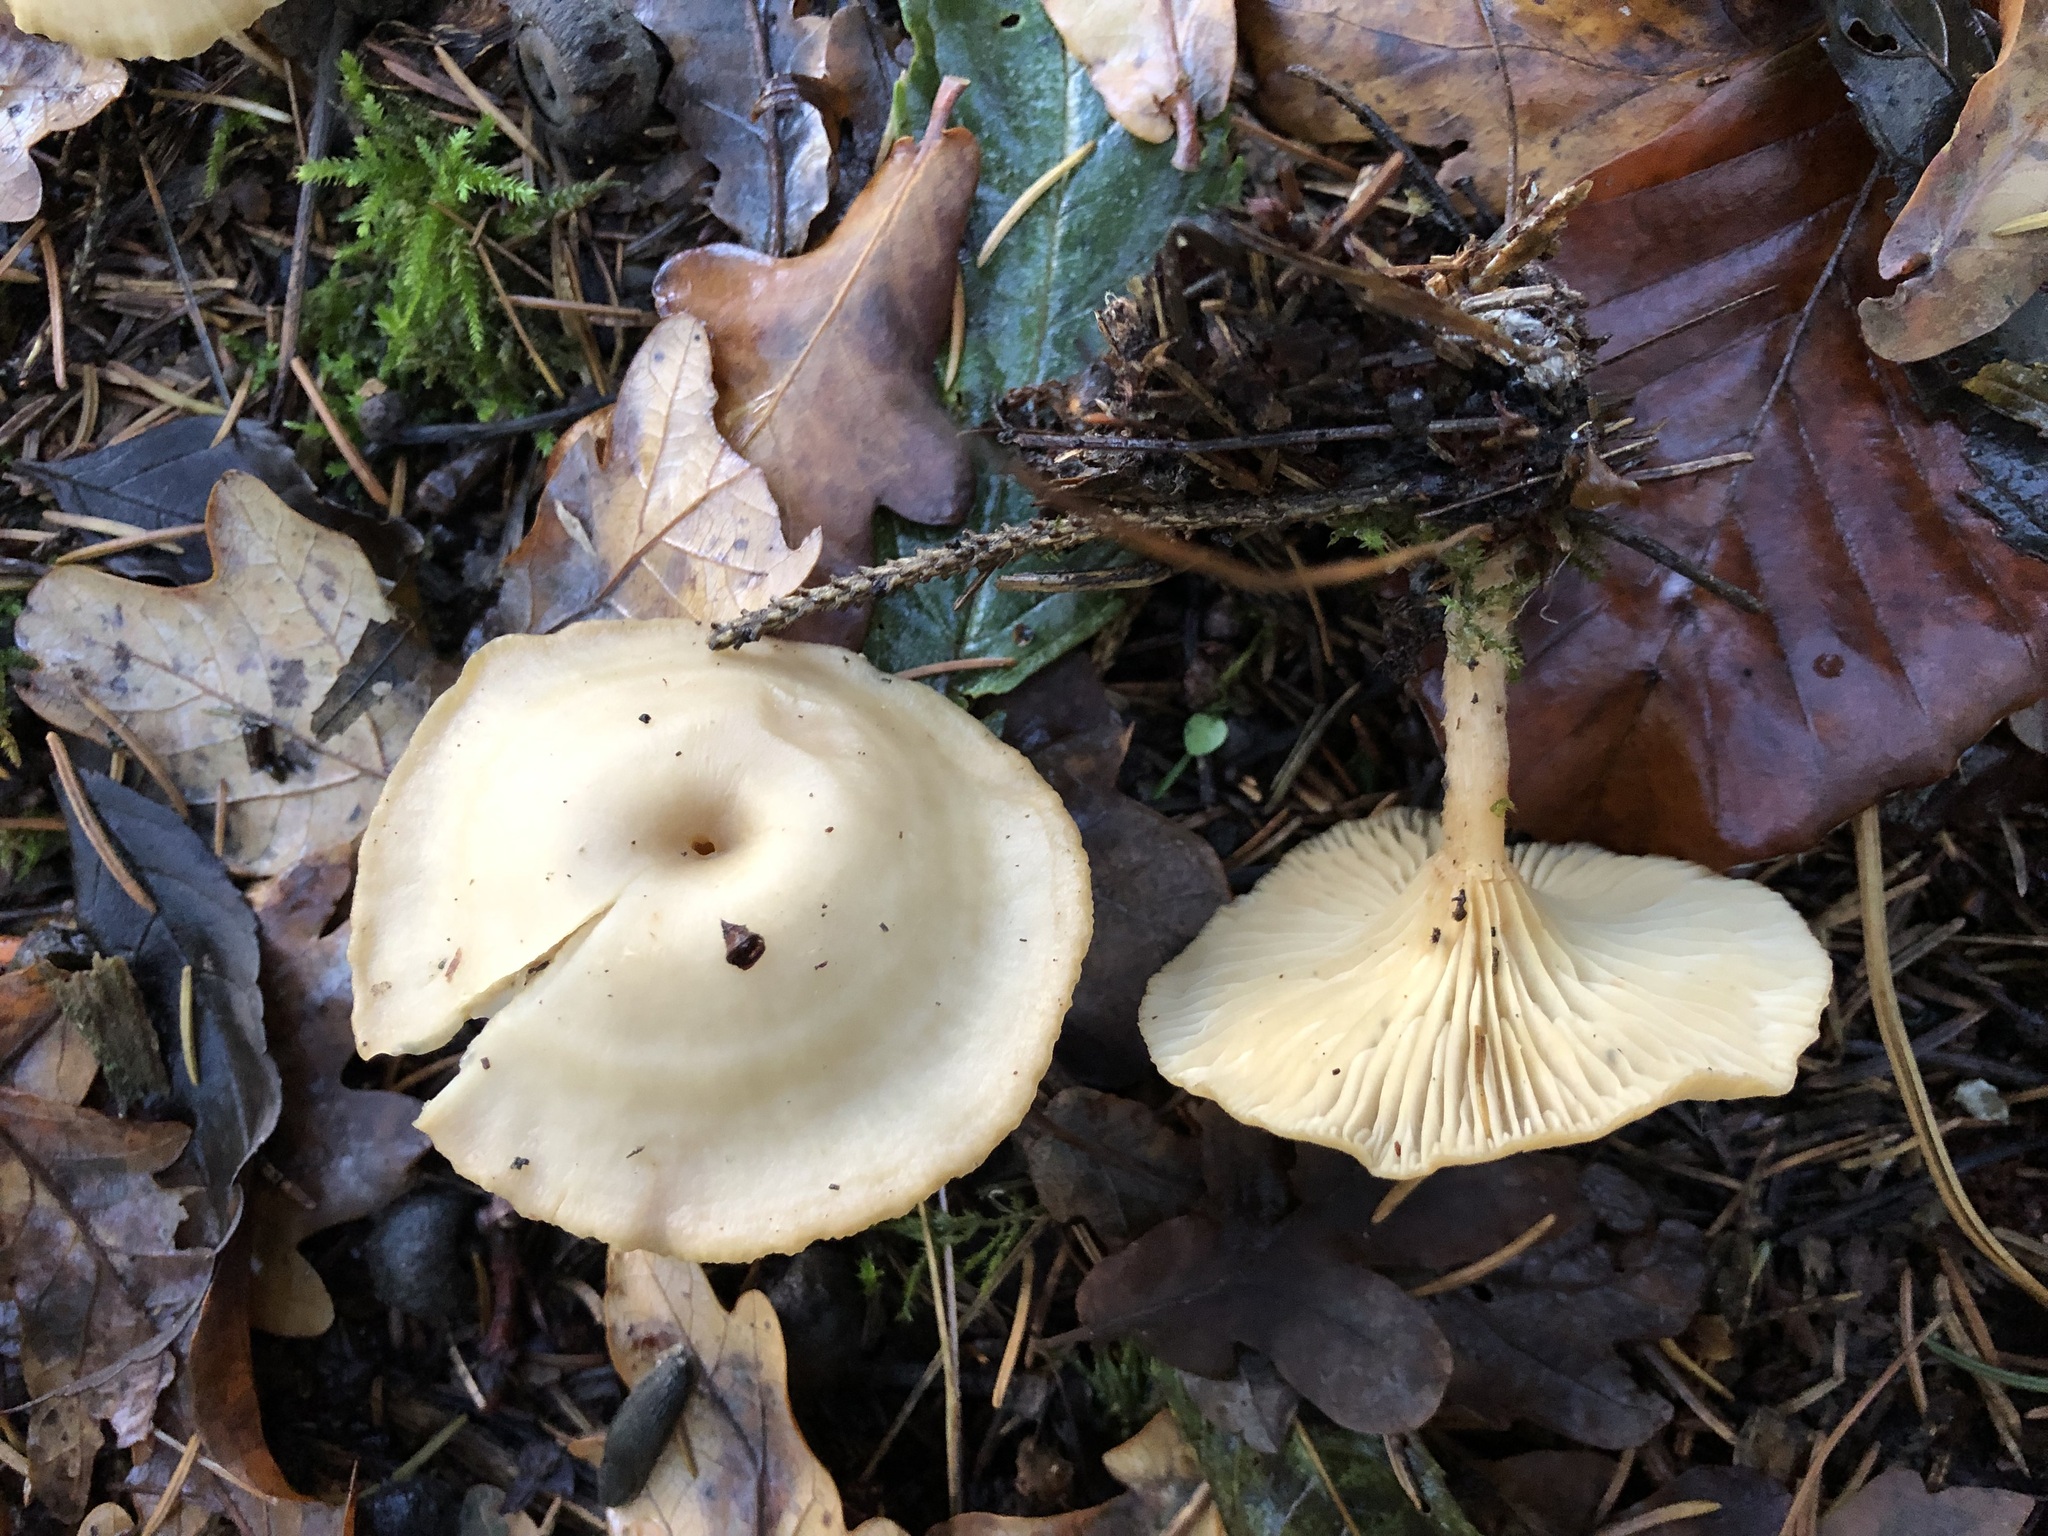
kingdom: Fungi
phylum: Basidiomycota
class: Agaricomycetes
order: Agaricales
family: Tricholomataceae
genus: Clitocybe
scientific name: Clitocybe phaeophthalma
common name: Chicken run funnel
